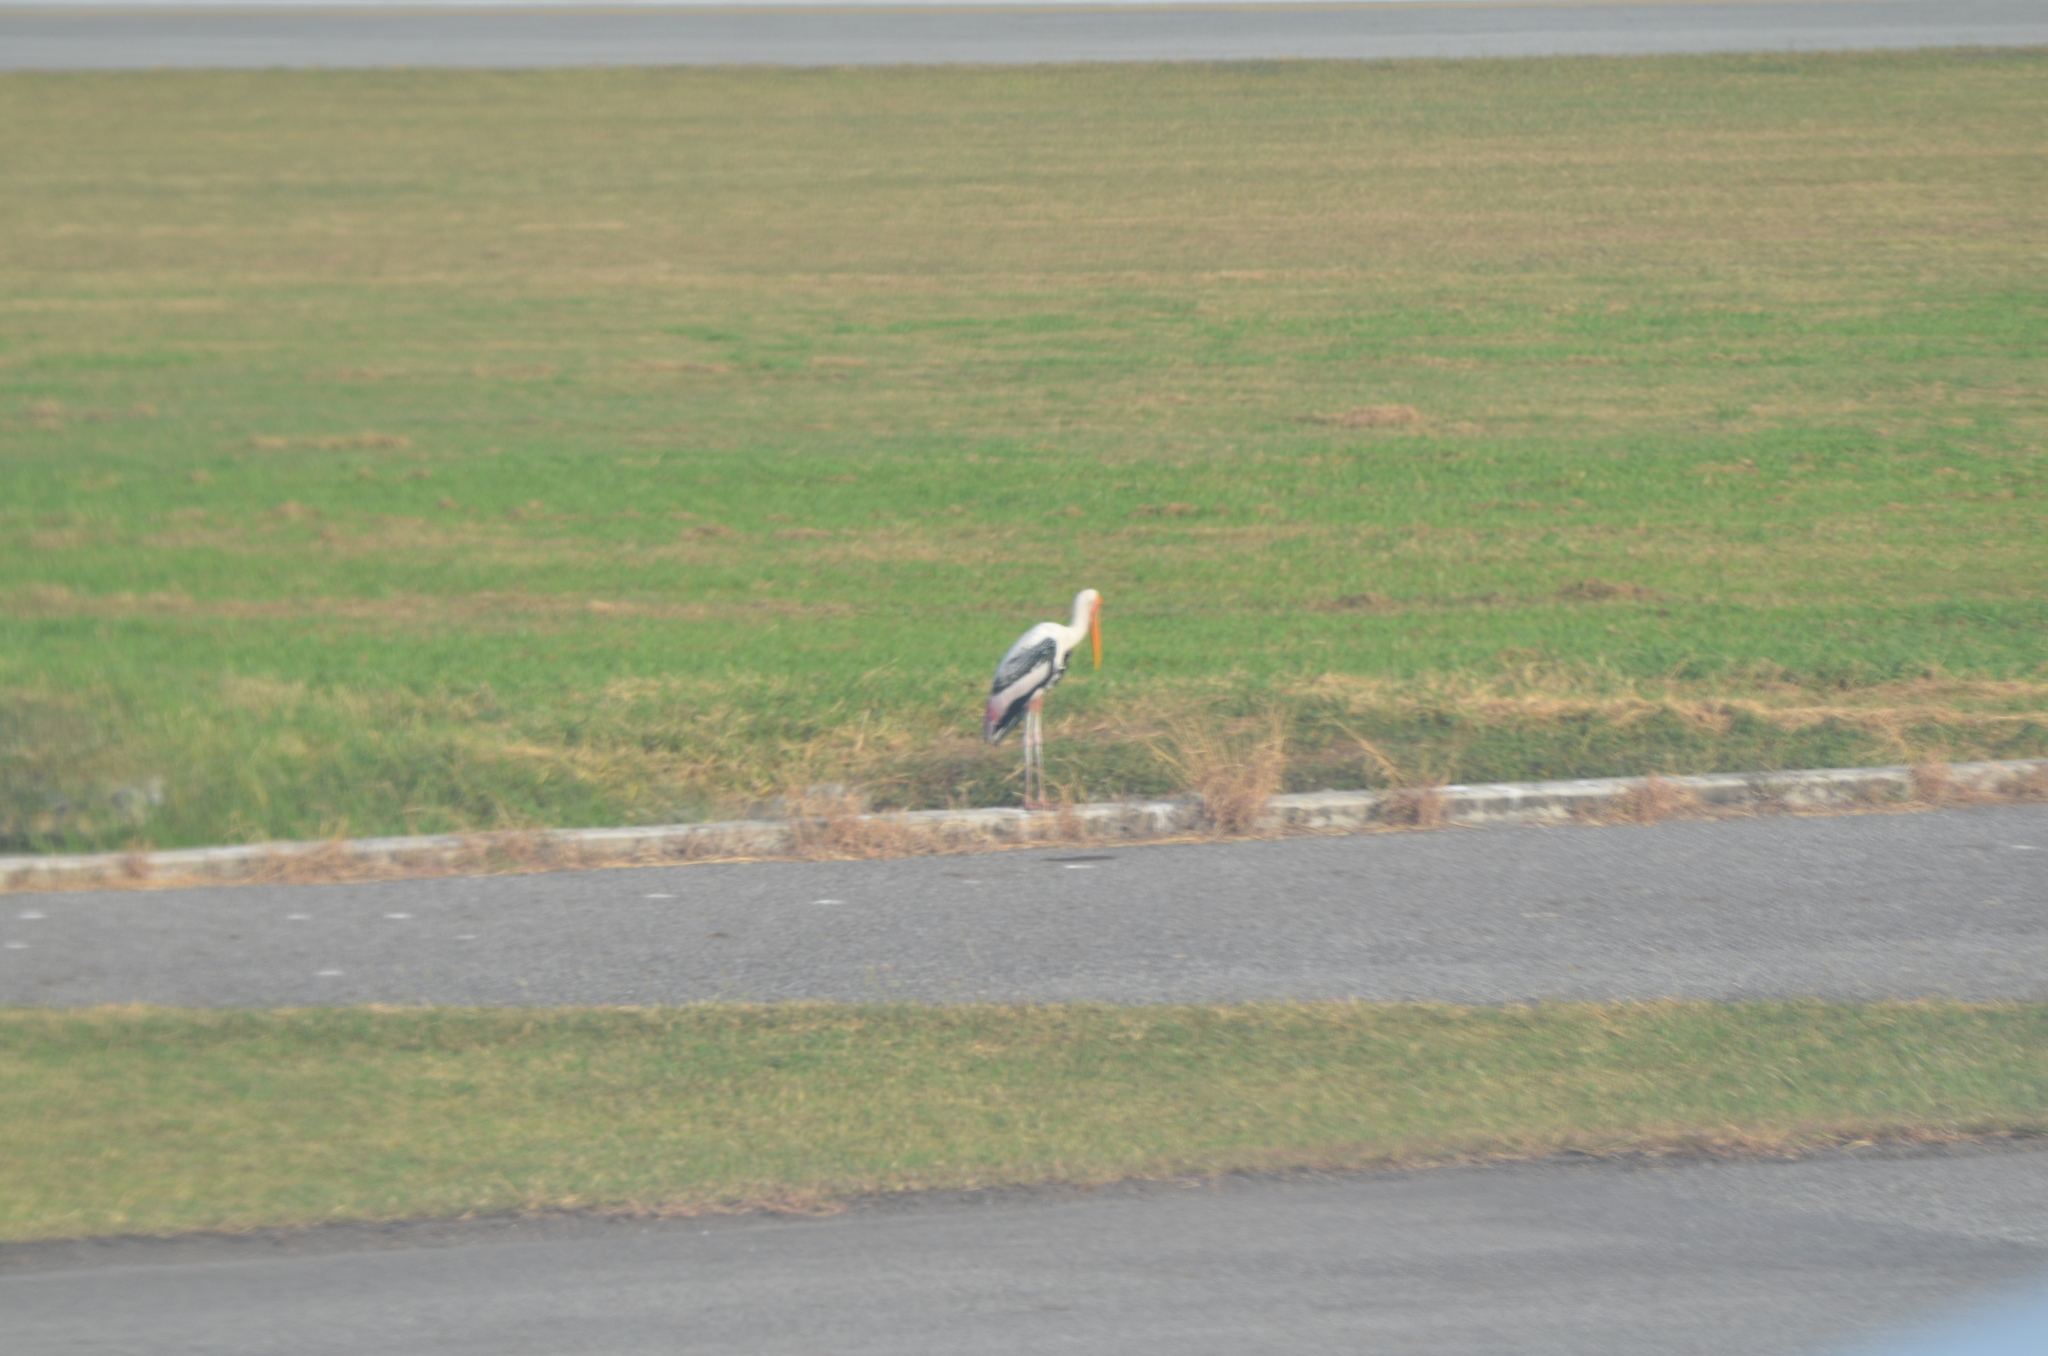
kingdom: Animalia
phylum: Chordata
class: Aves
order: Ciconiiformes
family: Ciconiidae
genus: Mycteria
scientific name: Mycteria leucocephala
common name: Painted stork
